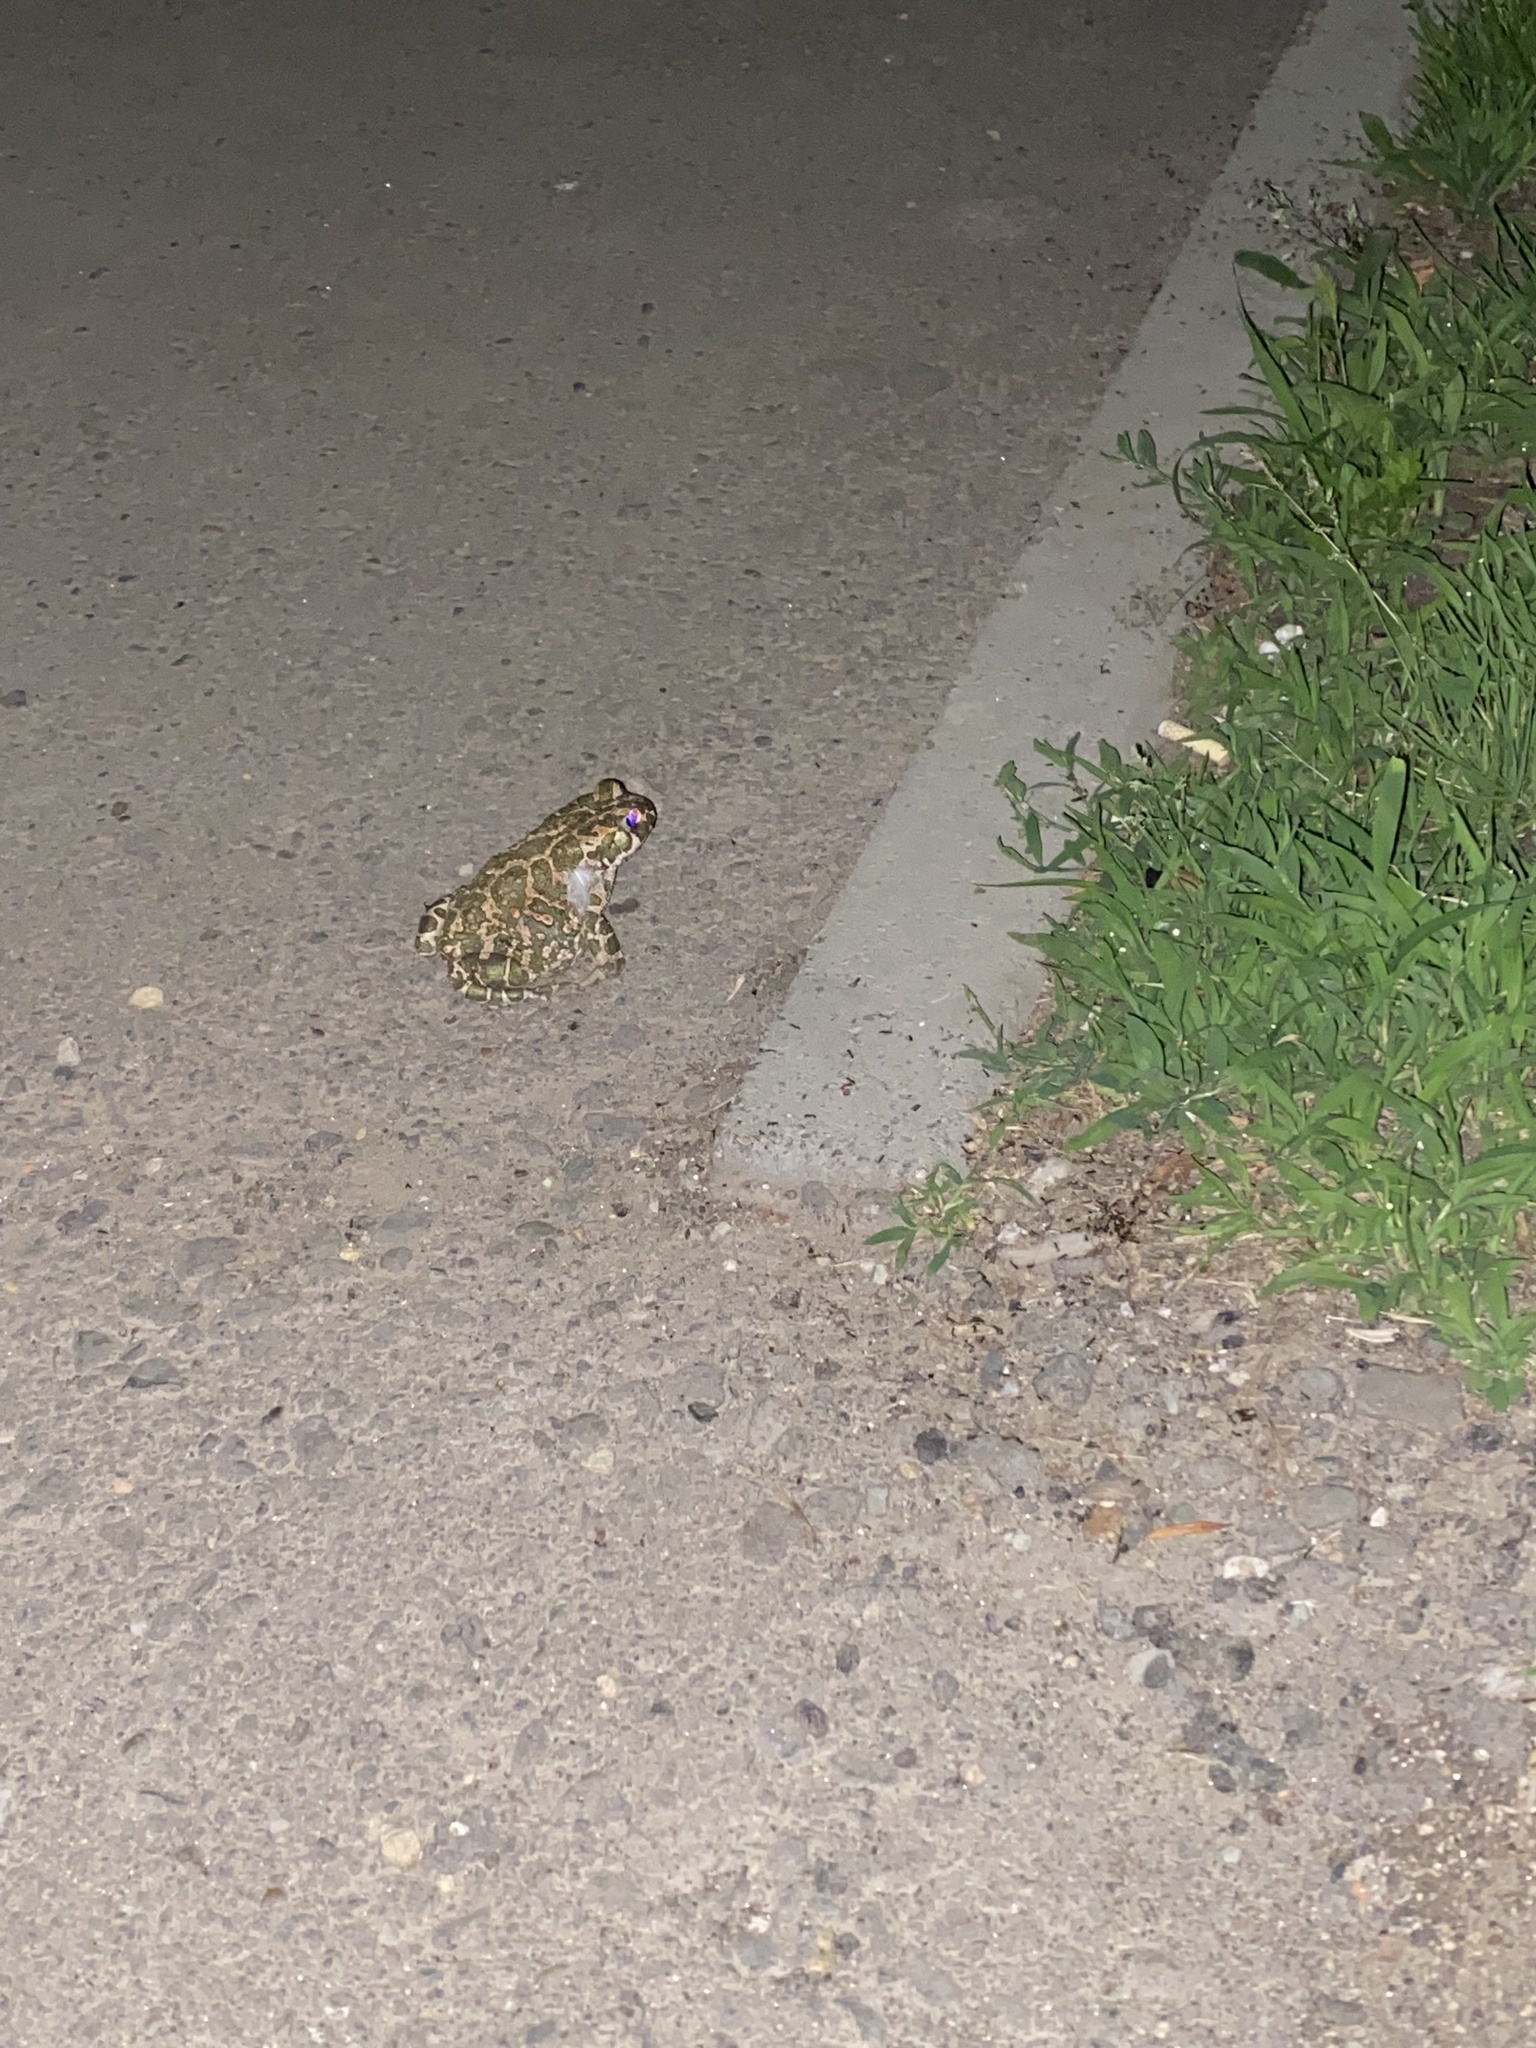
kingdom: Animalia
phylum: Chordata
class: Amphibia
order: Anura
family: Bufonidae
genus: Bufotes
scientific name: Bufotes viridis
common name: European green toad
